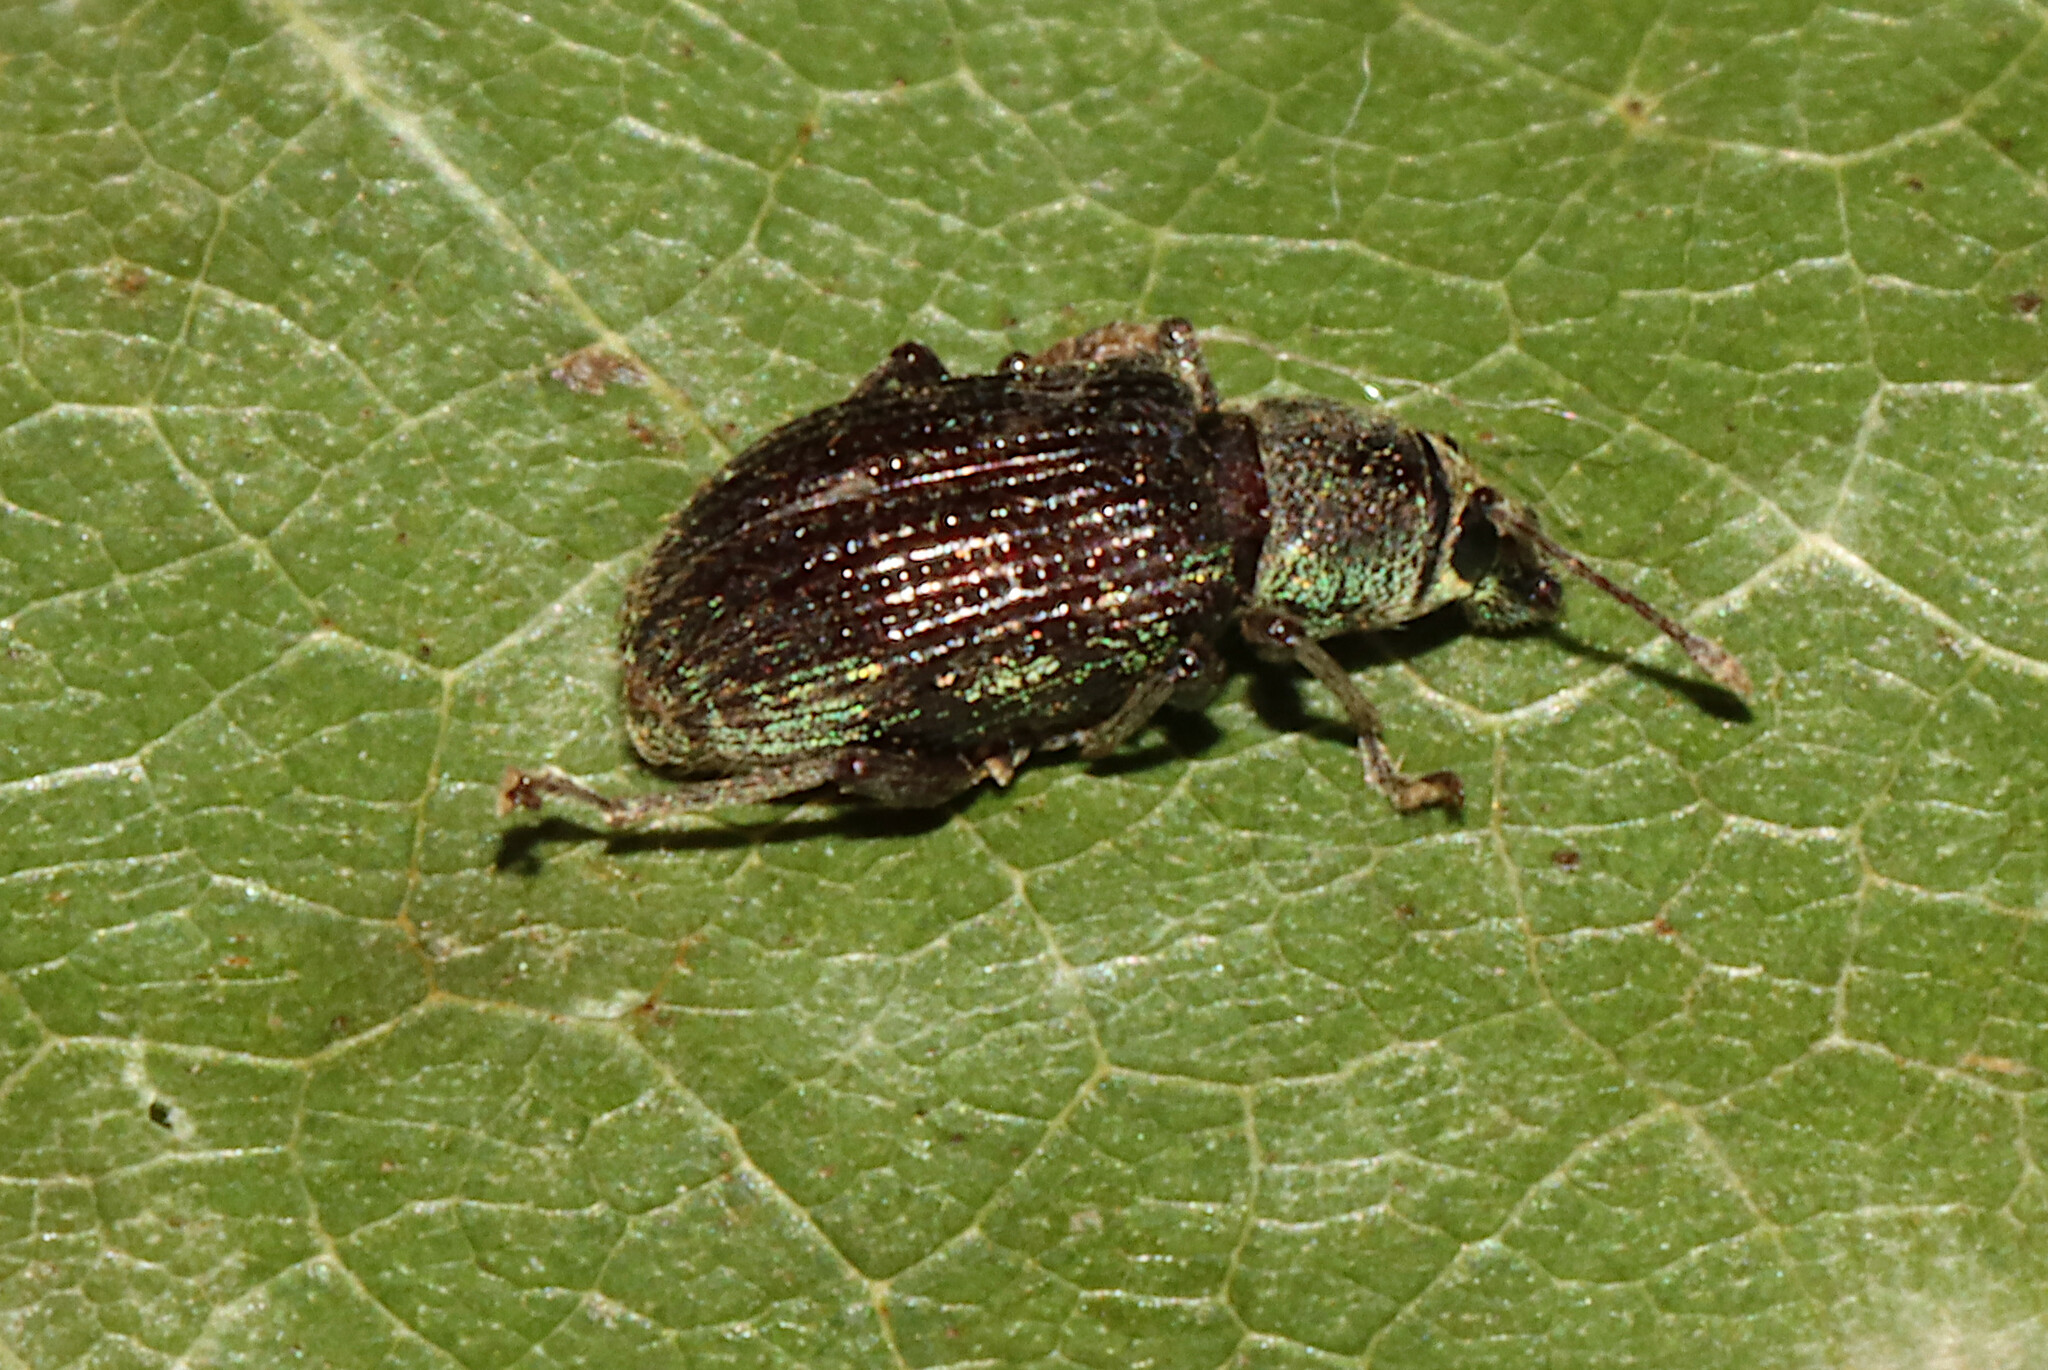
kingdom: Animalia
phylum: Arthropoda
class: Insecta
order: Coleoptera
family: Curculionidae
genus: Cyrtepistomus
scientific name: Cyrtepistomus castaneus
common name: Weevil
